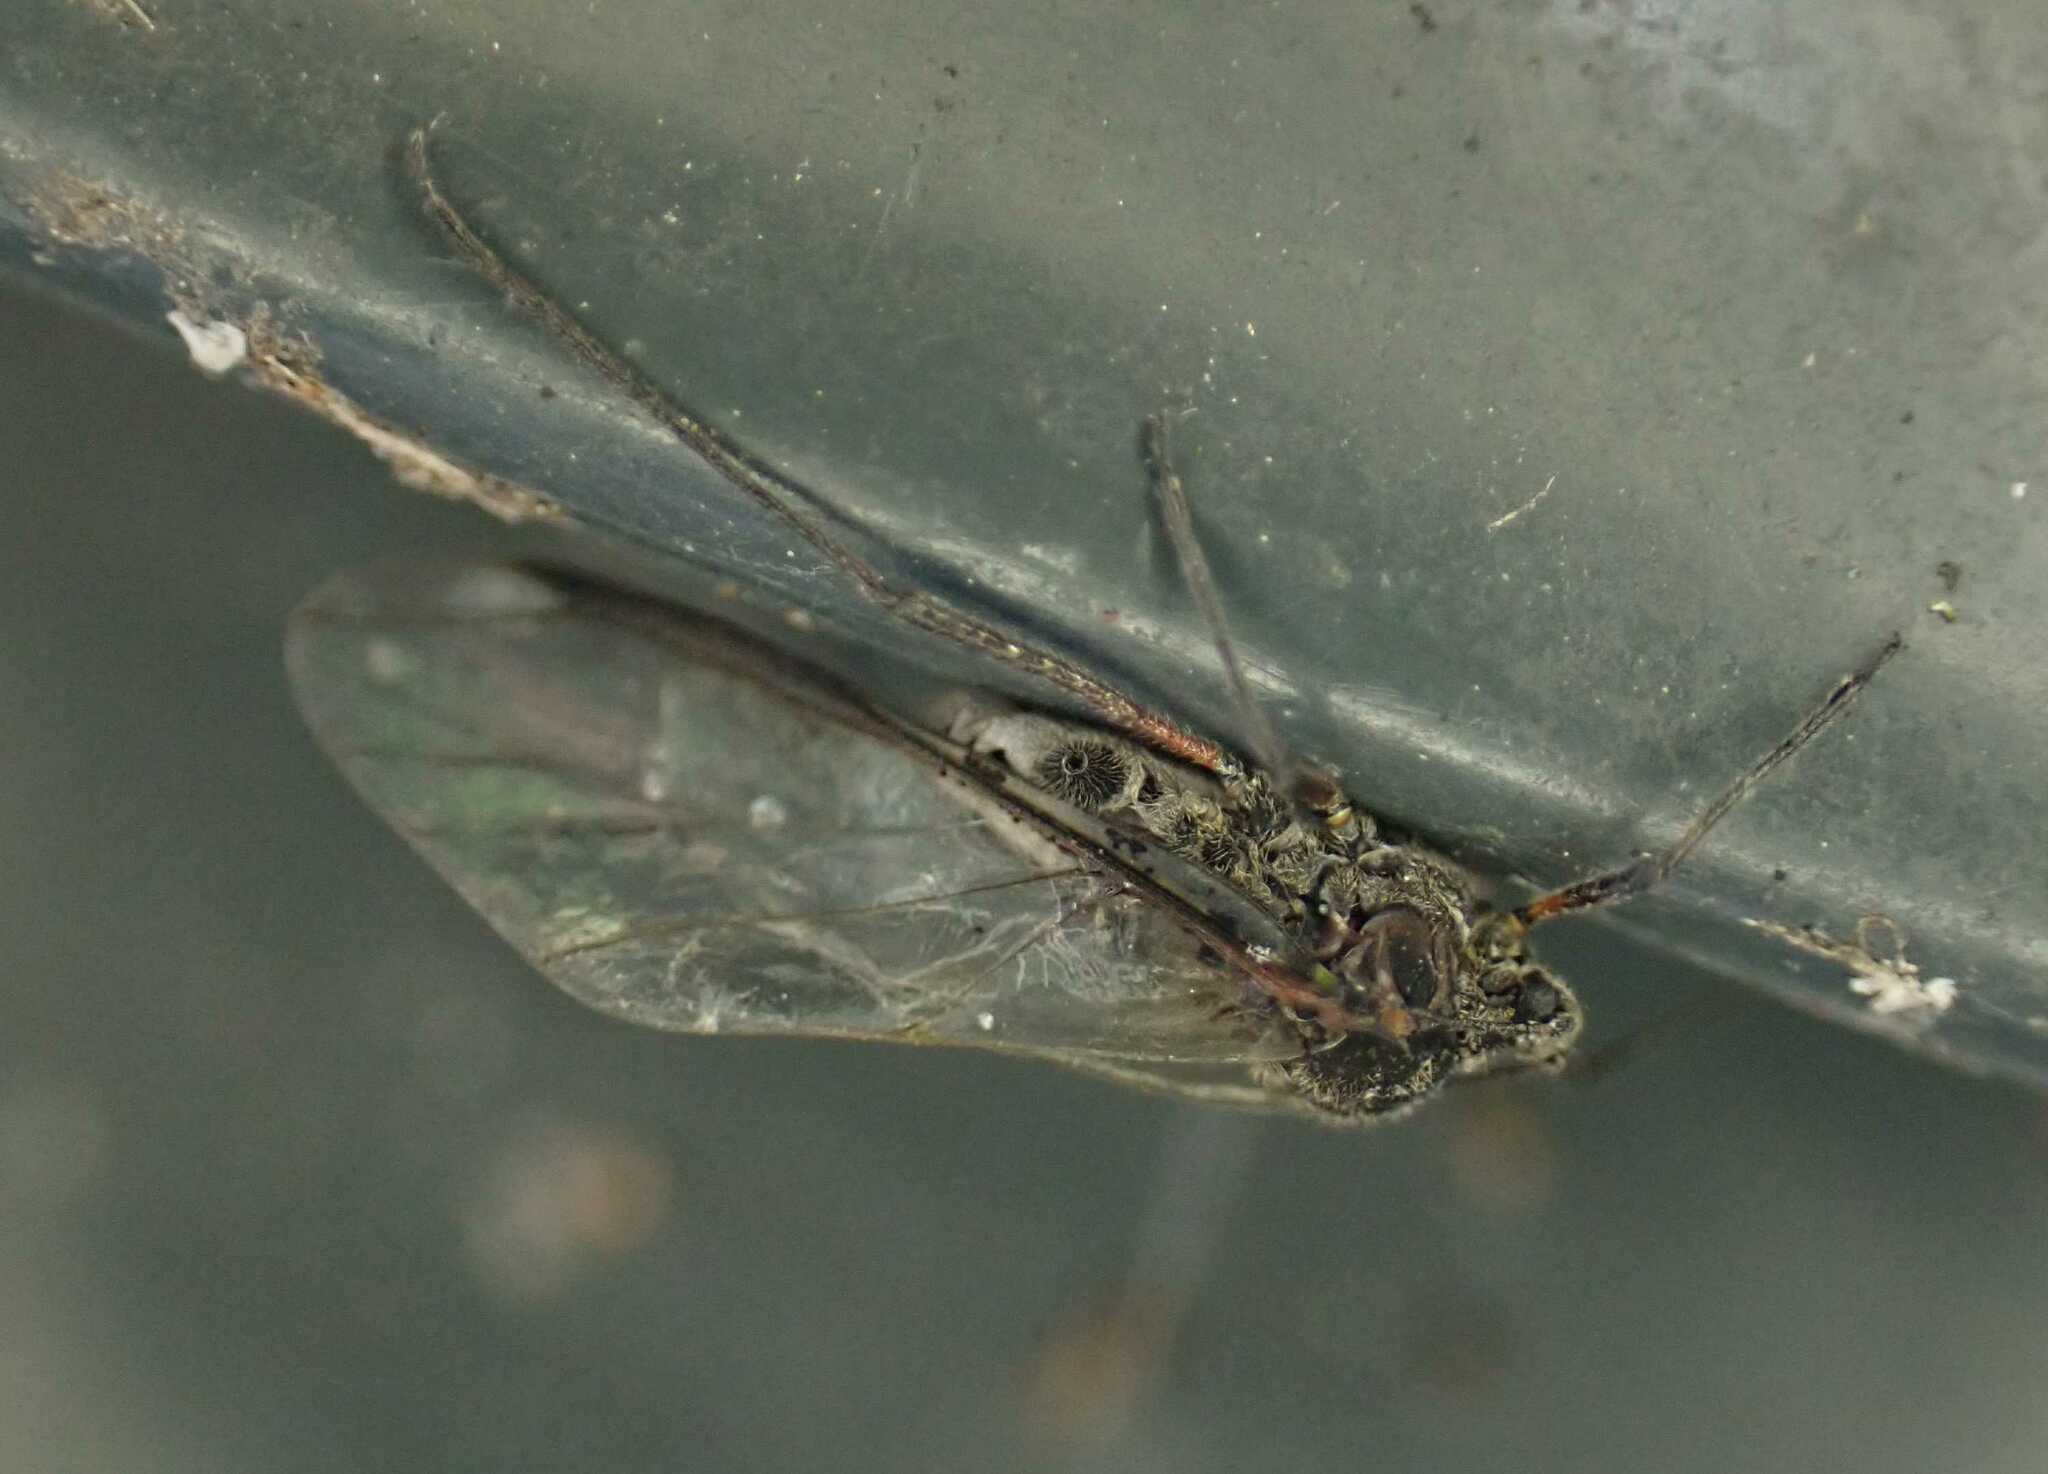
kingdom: Animalia
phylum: Arthropoda
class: Insecta
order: Hemiptera
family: Aphididae
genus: Tuberolachnus
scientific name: Tuberolachnus salignus
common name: Giant willow aphid
